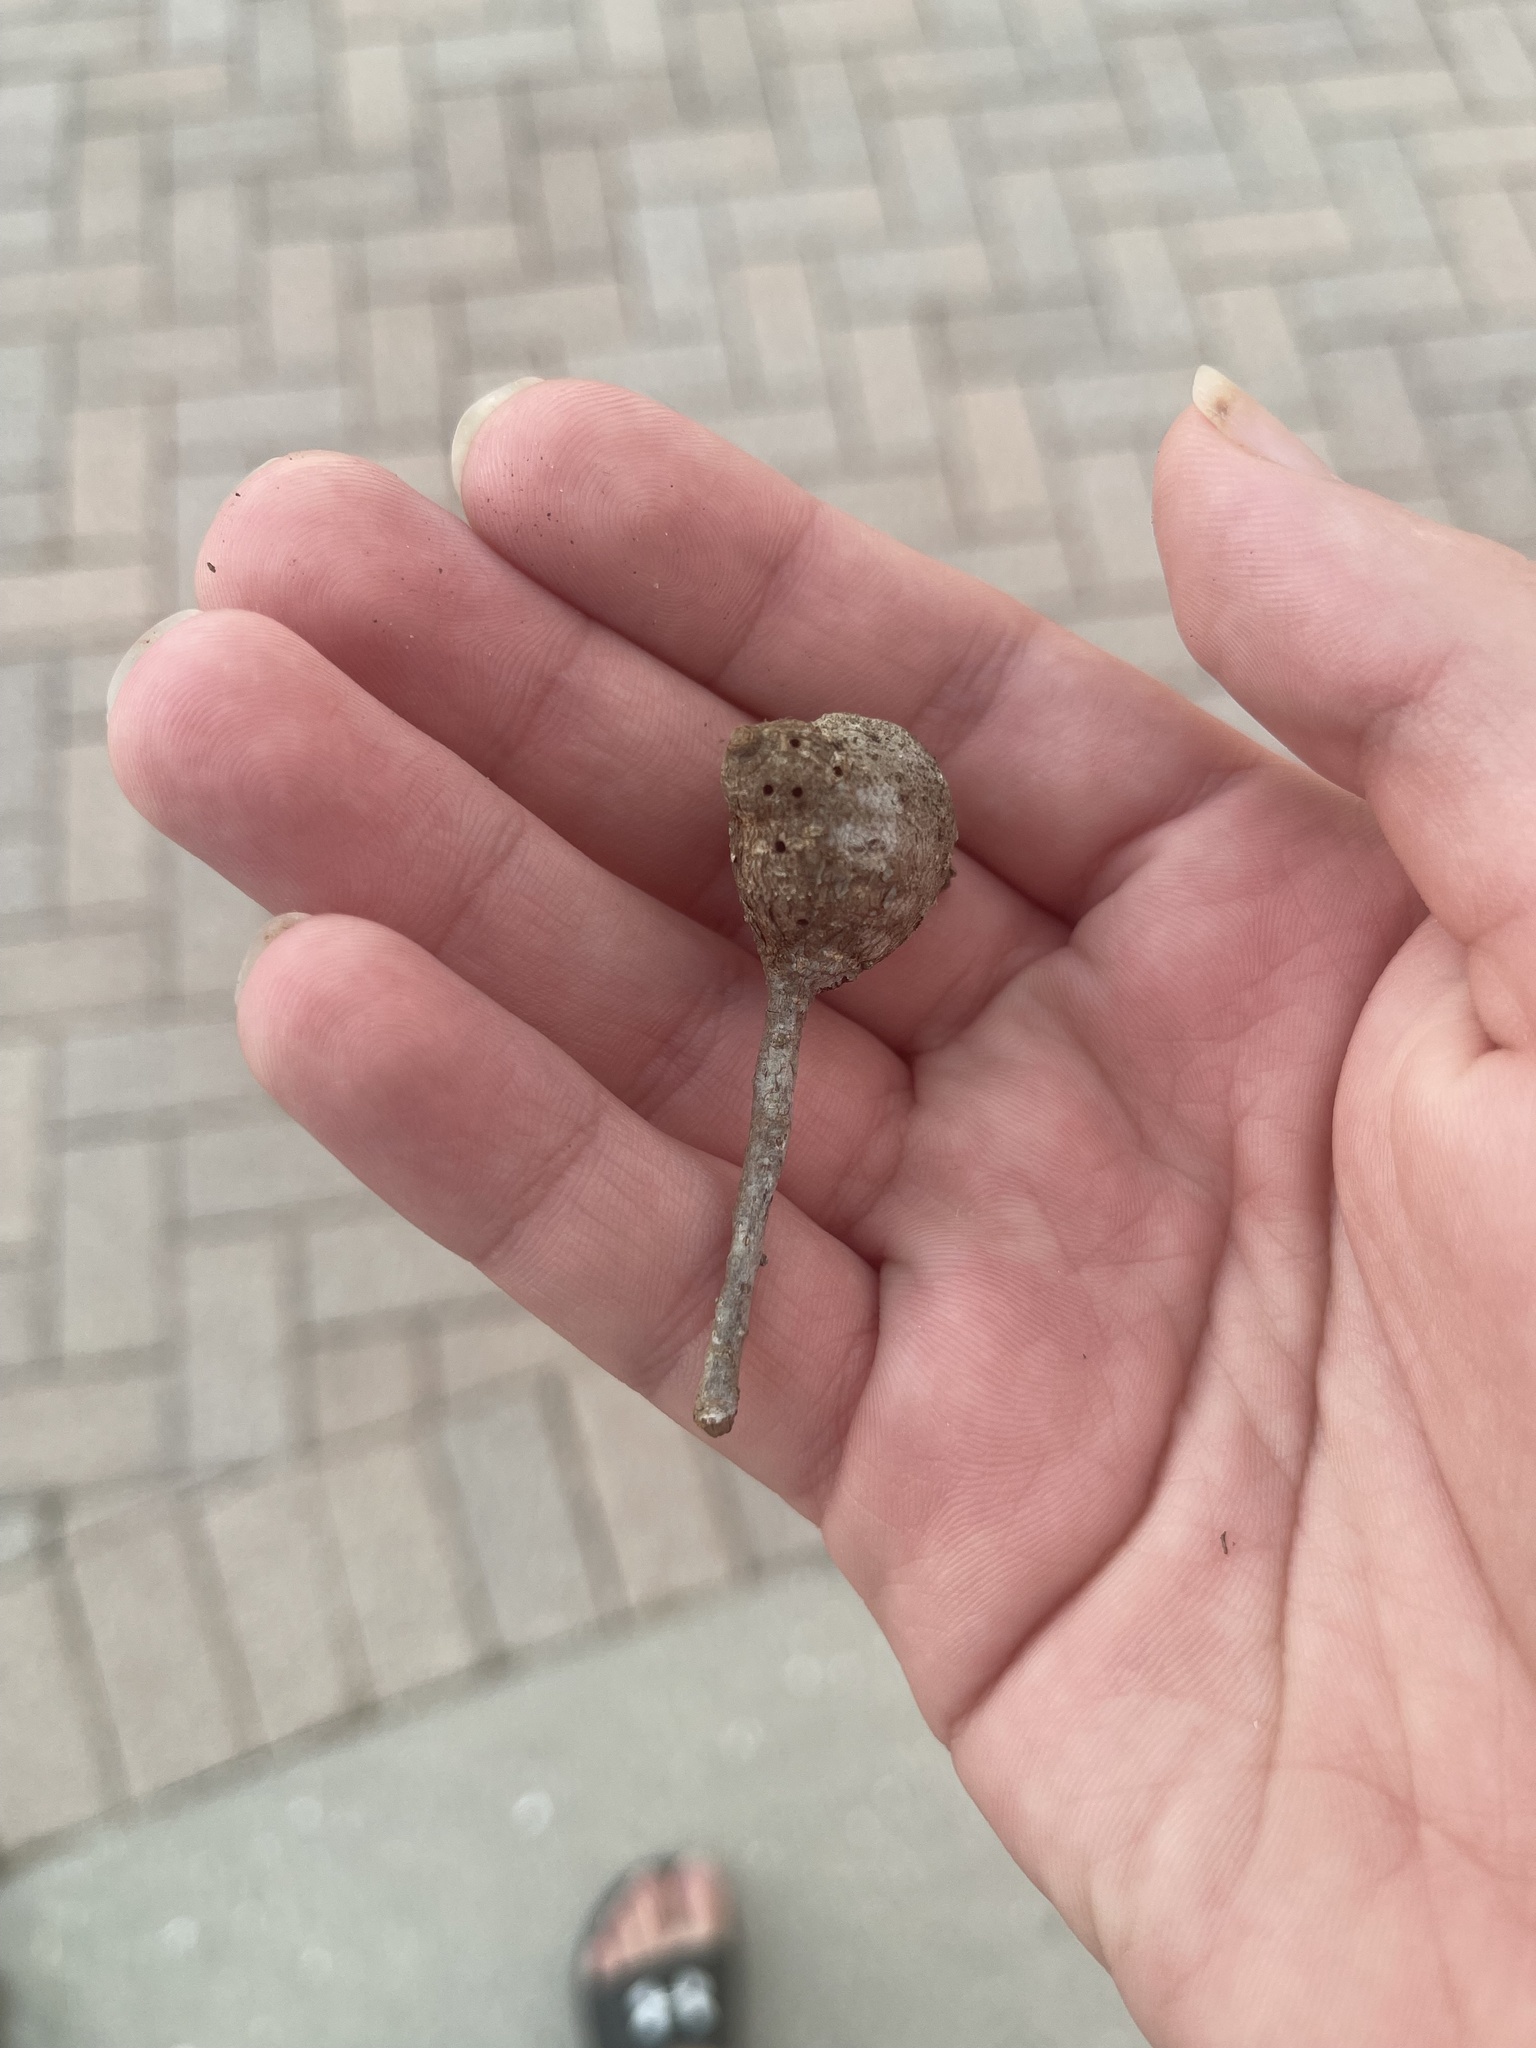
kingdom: Animalia
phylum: Arthropoda
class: Insecta
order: Hymenoptera
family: Cynipidae
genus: Callirhytis
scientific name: Callirhytis
